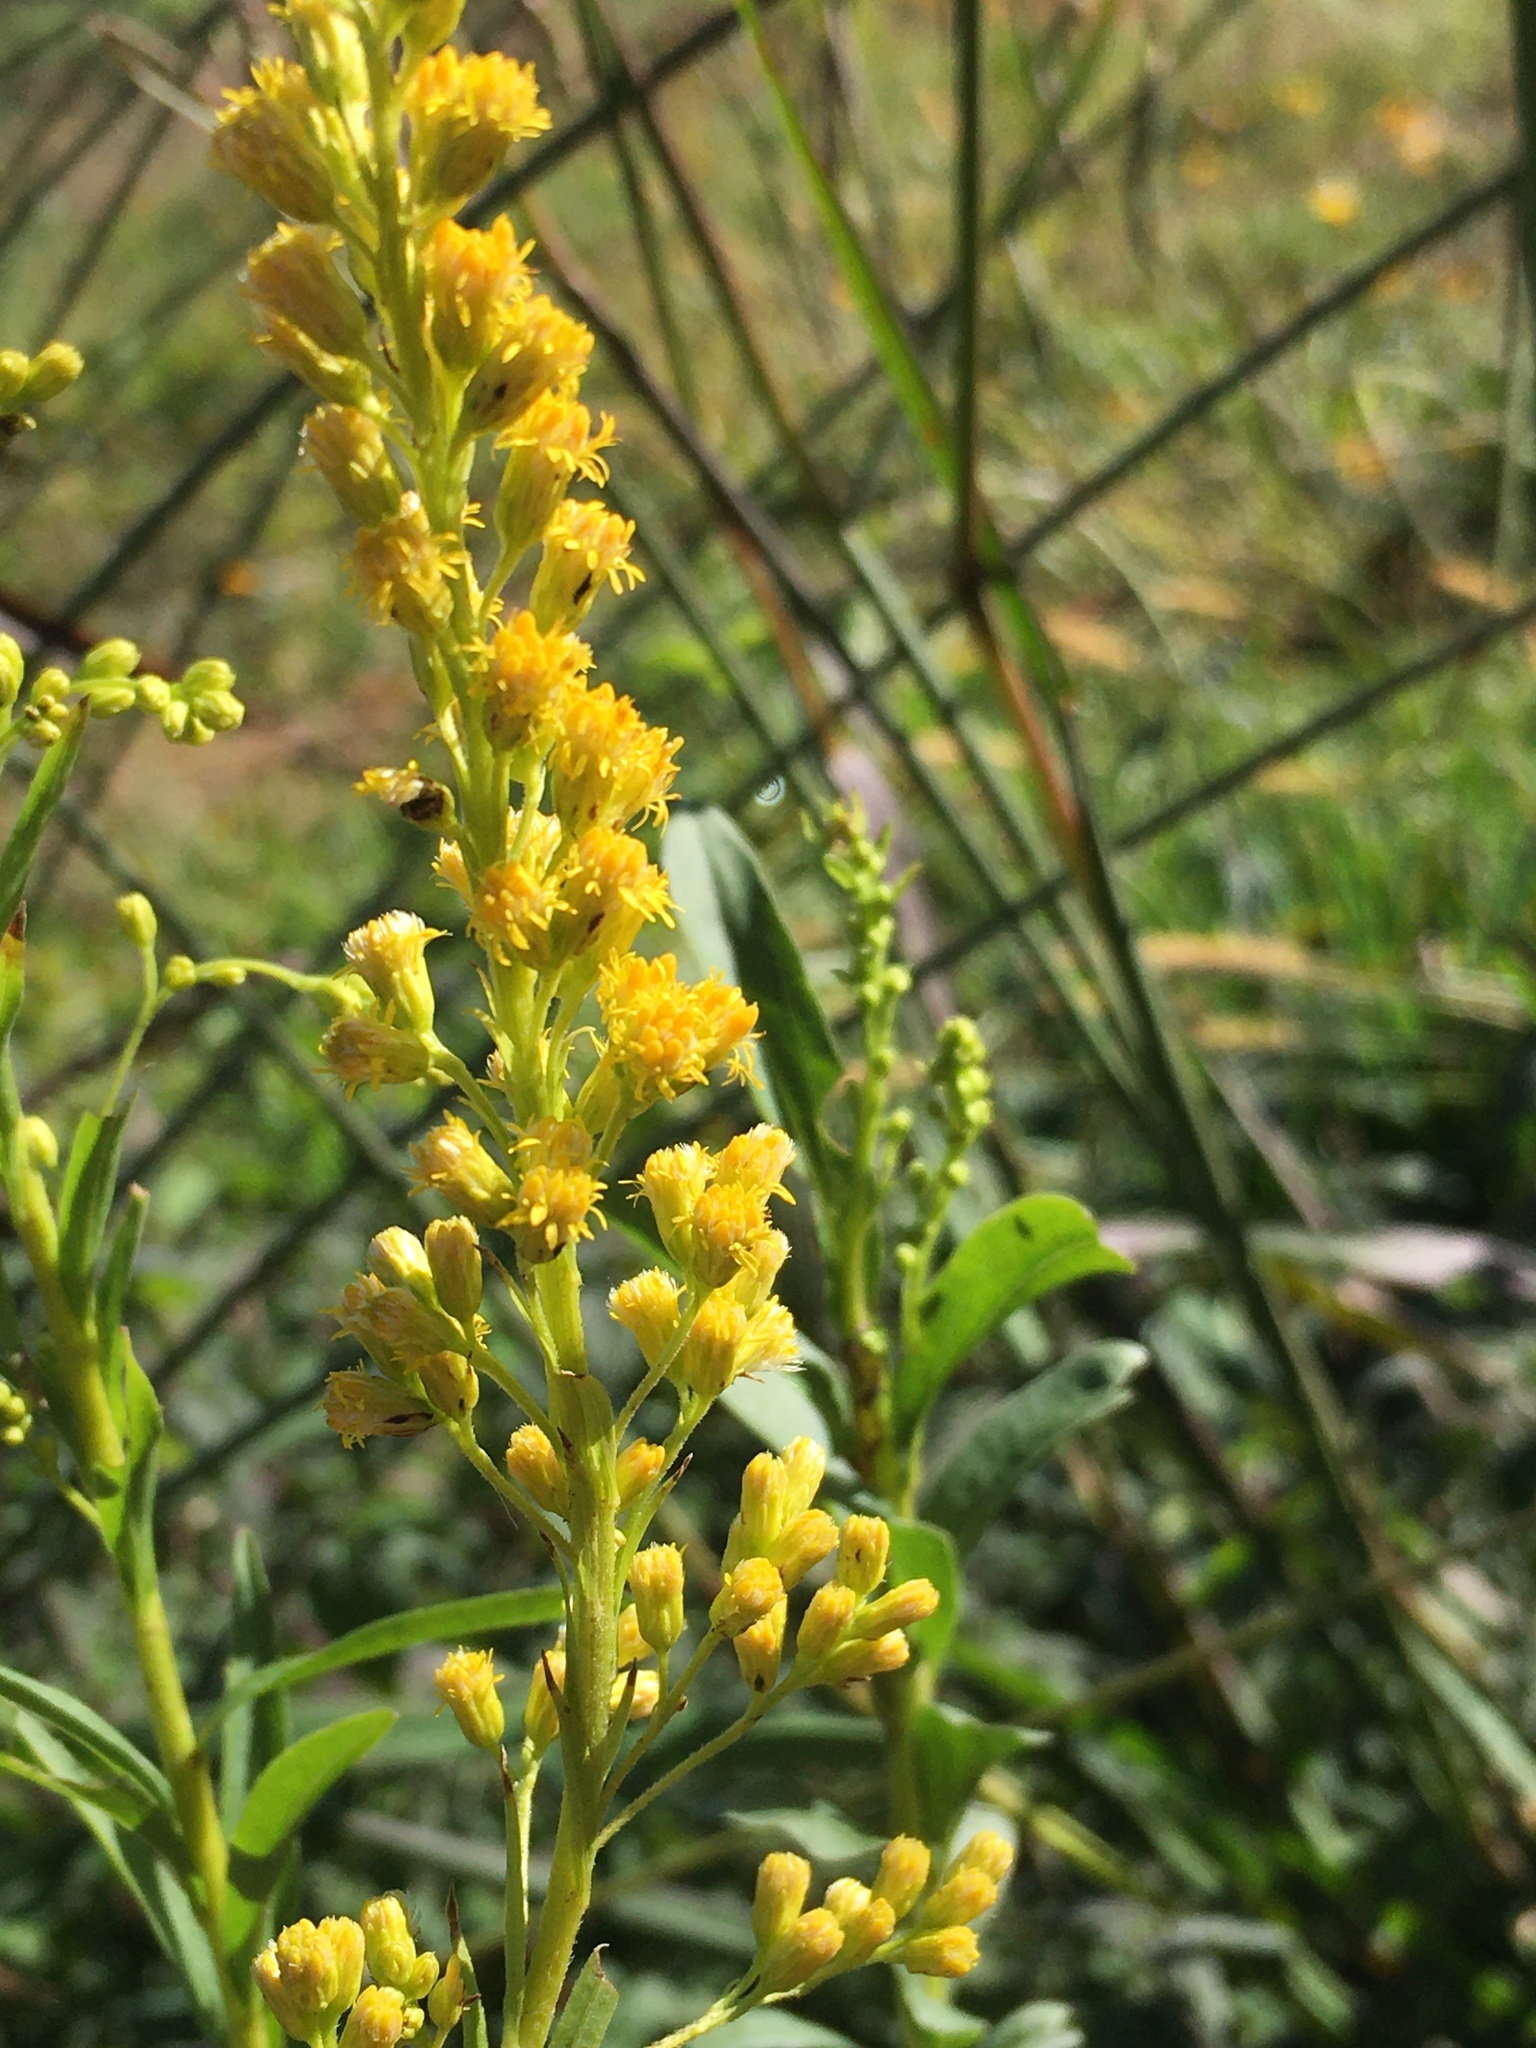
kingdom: Plantae
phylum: Tracheophyta
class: Magnoliopsida
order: Asterales
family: Asteraceae
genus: Solidago
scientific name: Solidago chilensis
